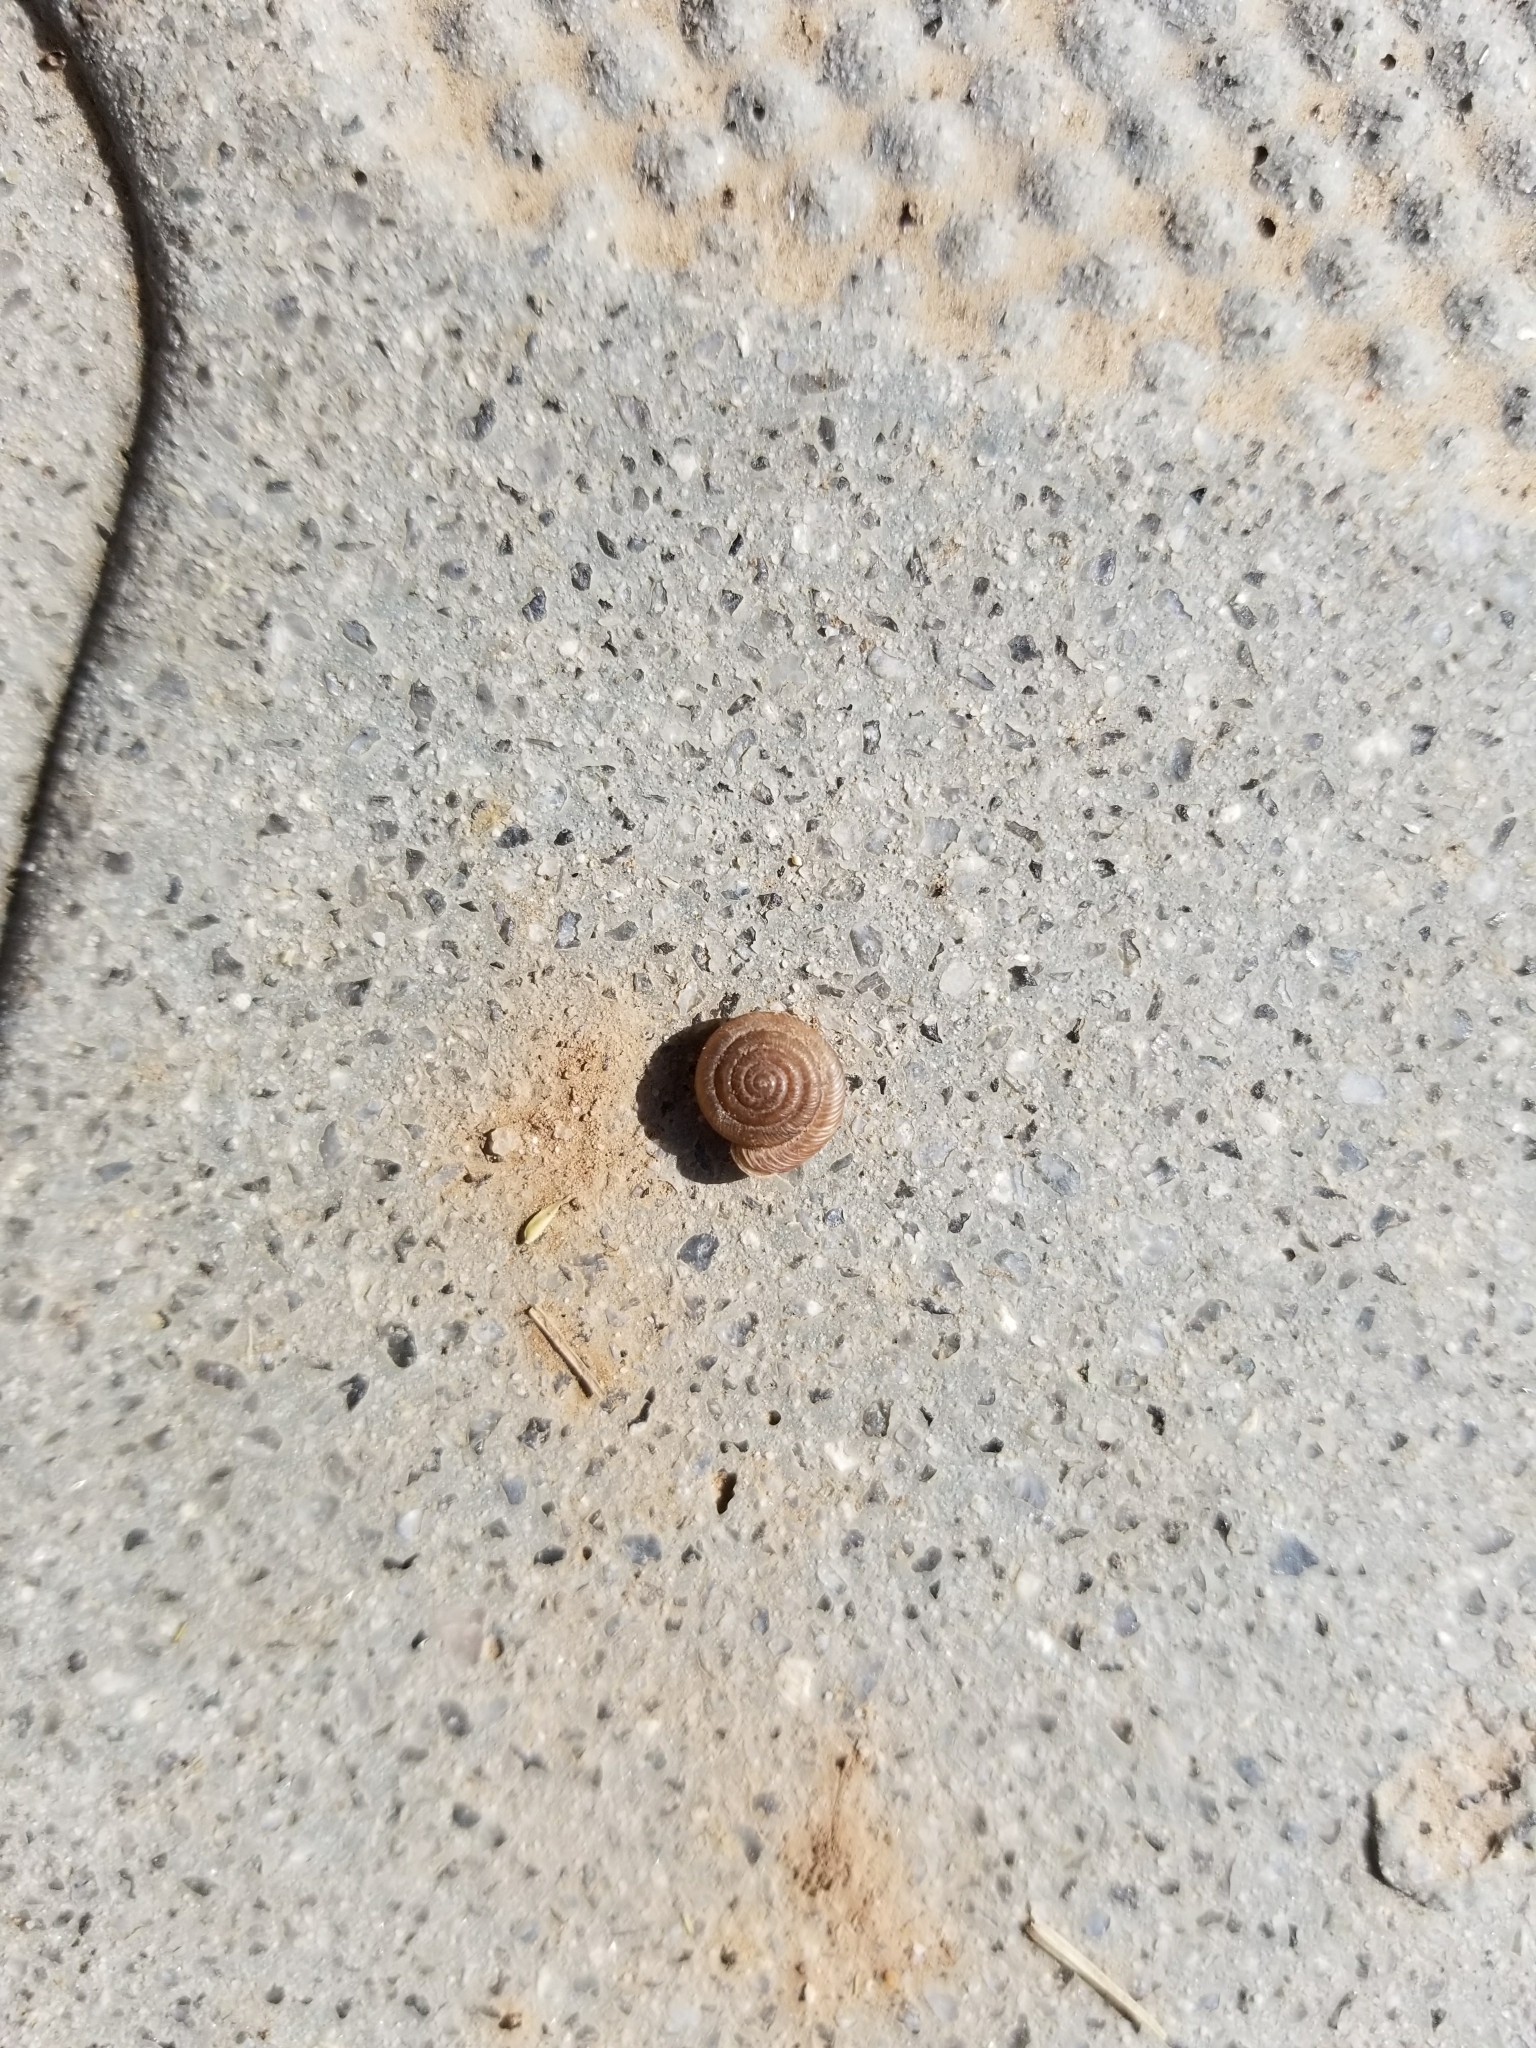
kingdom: Animalia
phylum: Mollusca
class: Gastropoda
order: Stylommatophora
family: Polygyridae
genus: Polygyra
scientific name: Polygyra cereolus
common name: Southern flatcone snail
